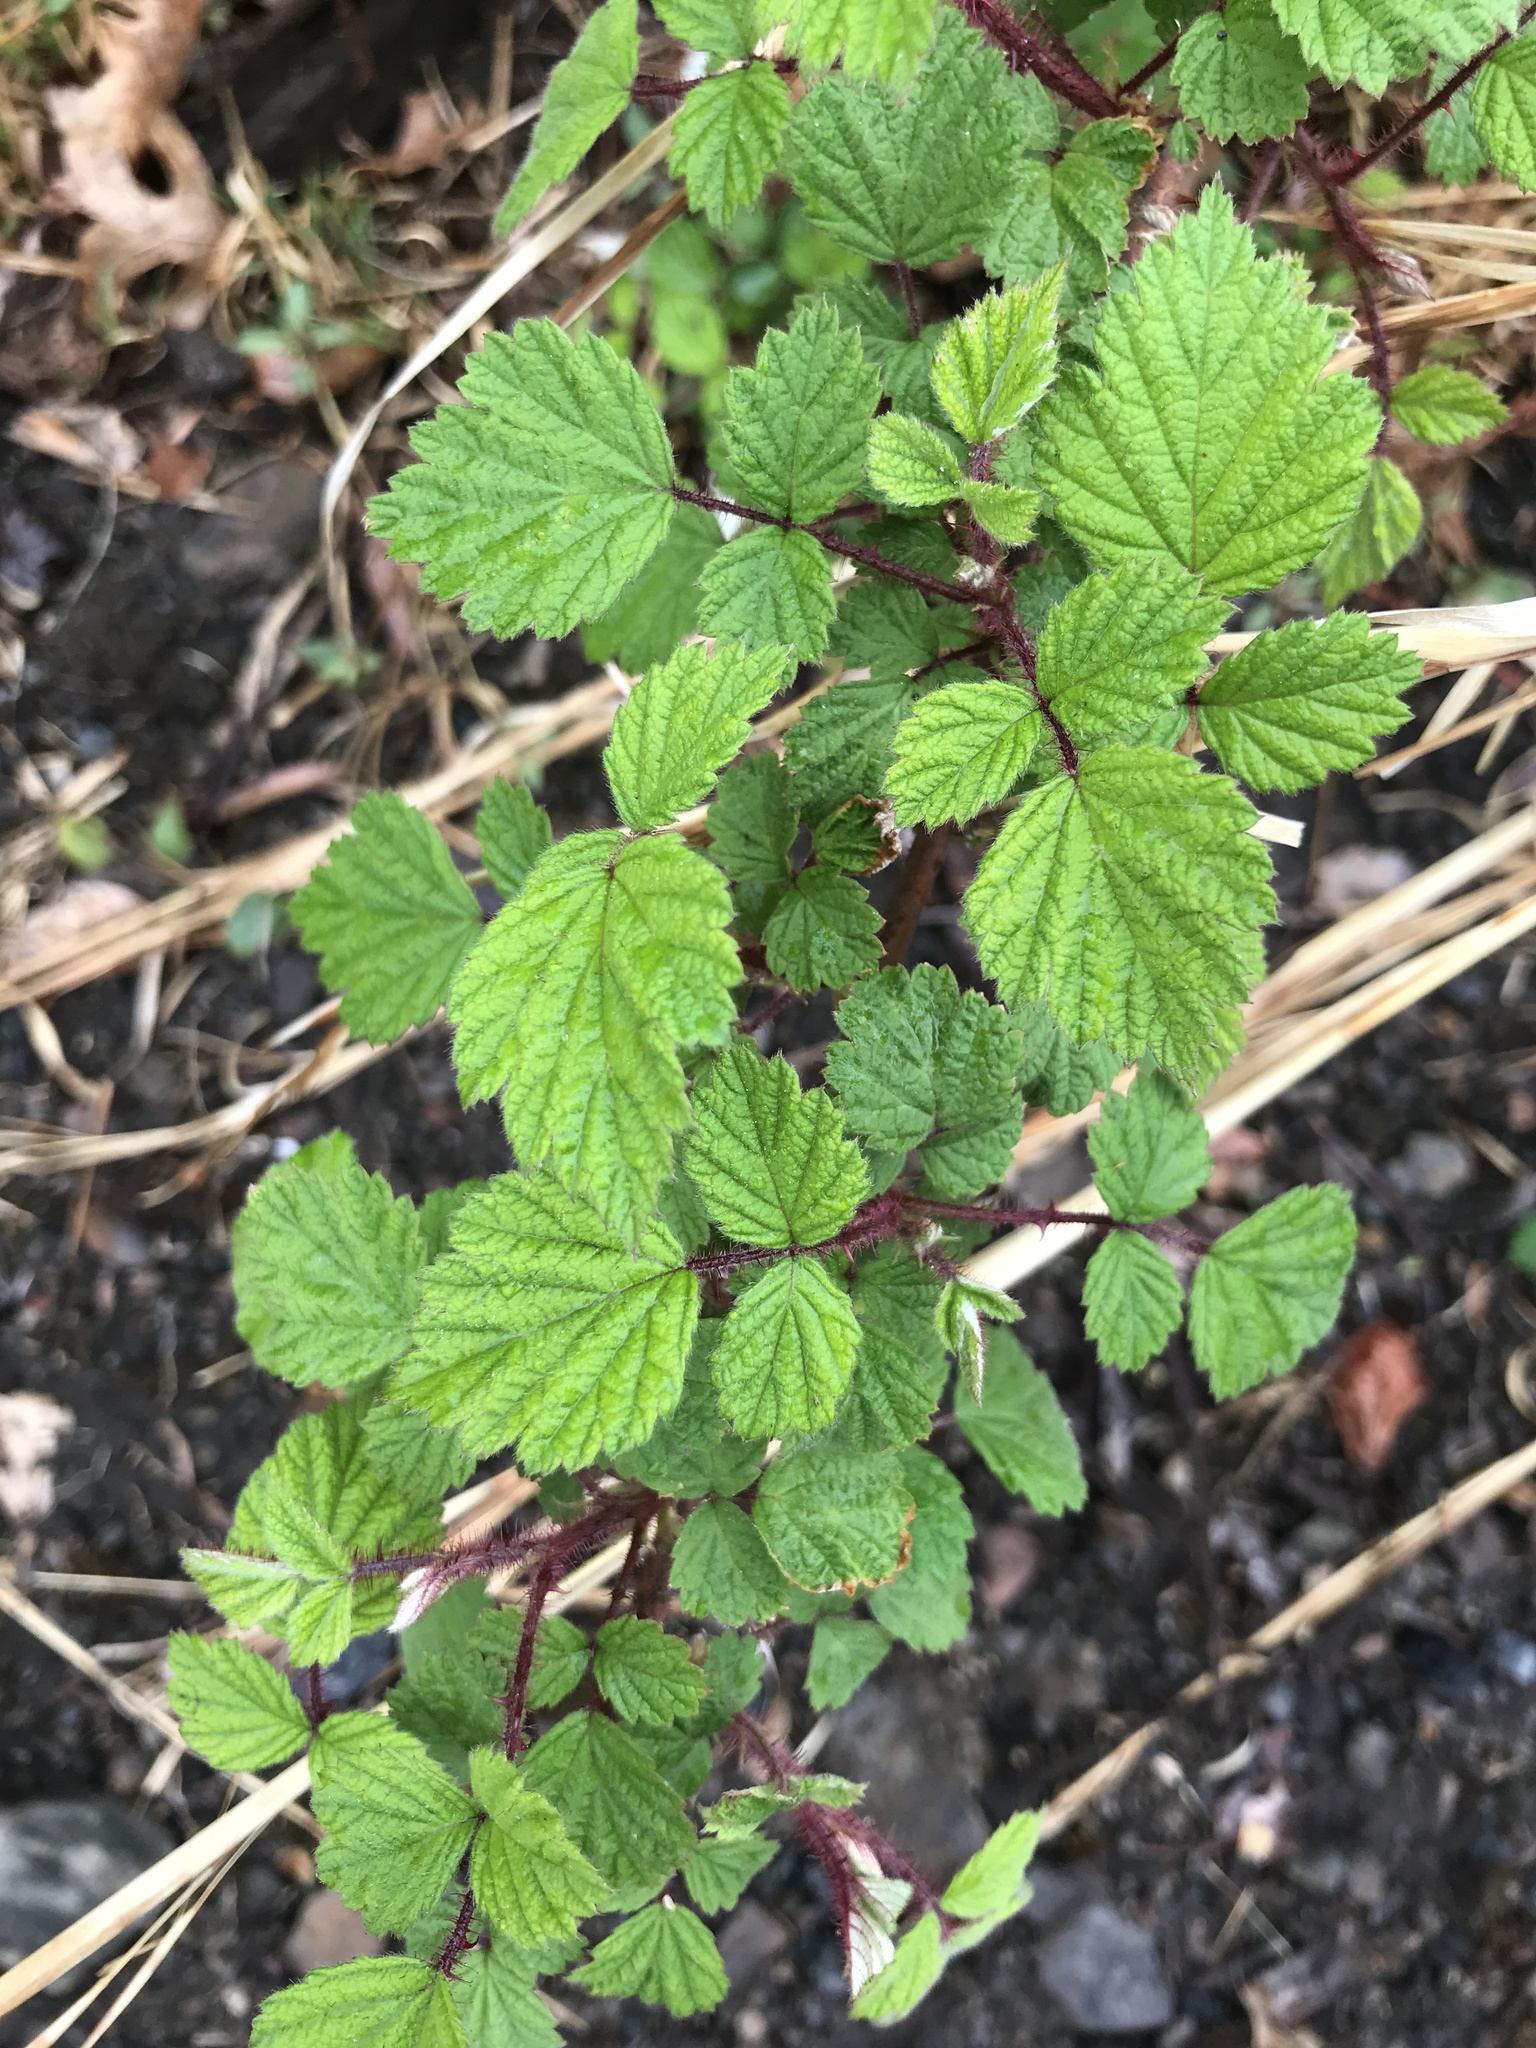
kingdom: Plantae
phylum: Tracheophyta
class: Magnoliopsida
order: Rosales
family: Rosaceae
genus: Rubus
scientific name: Rubus phoenicolasius
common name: Japanese wineberry
